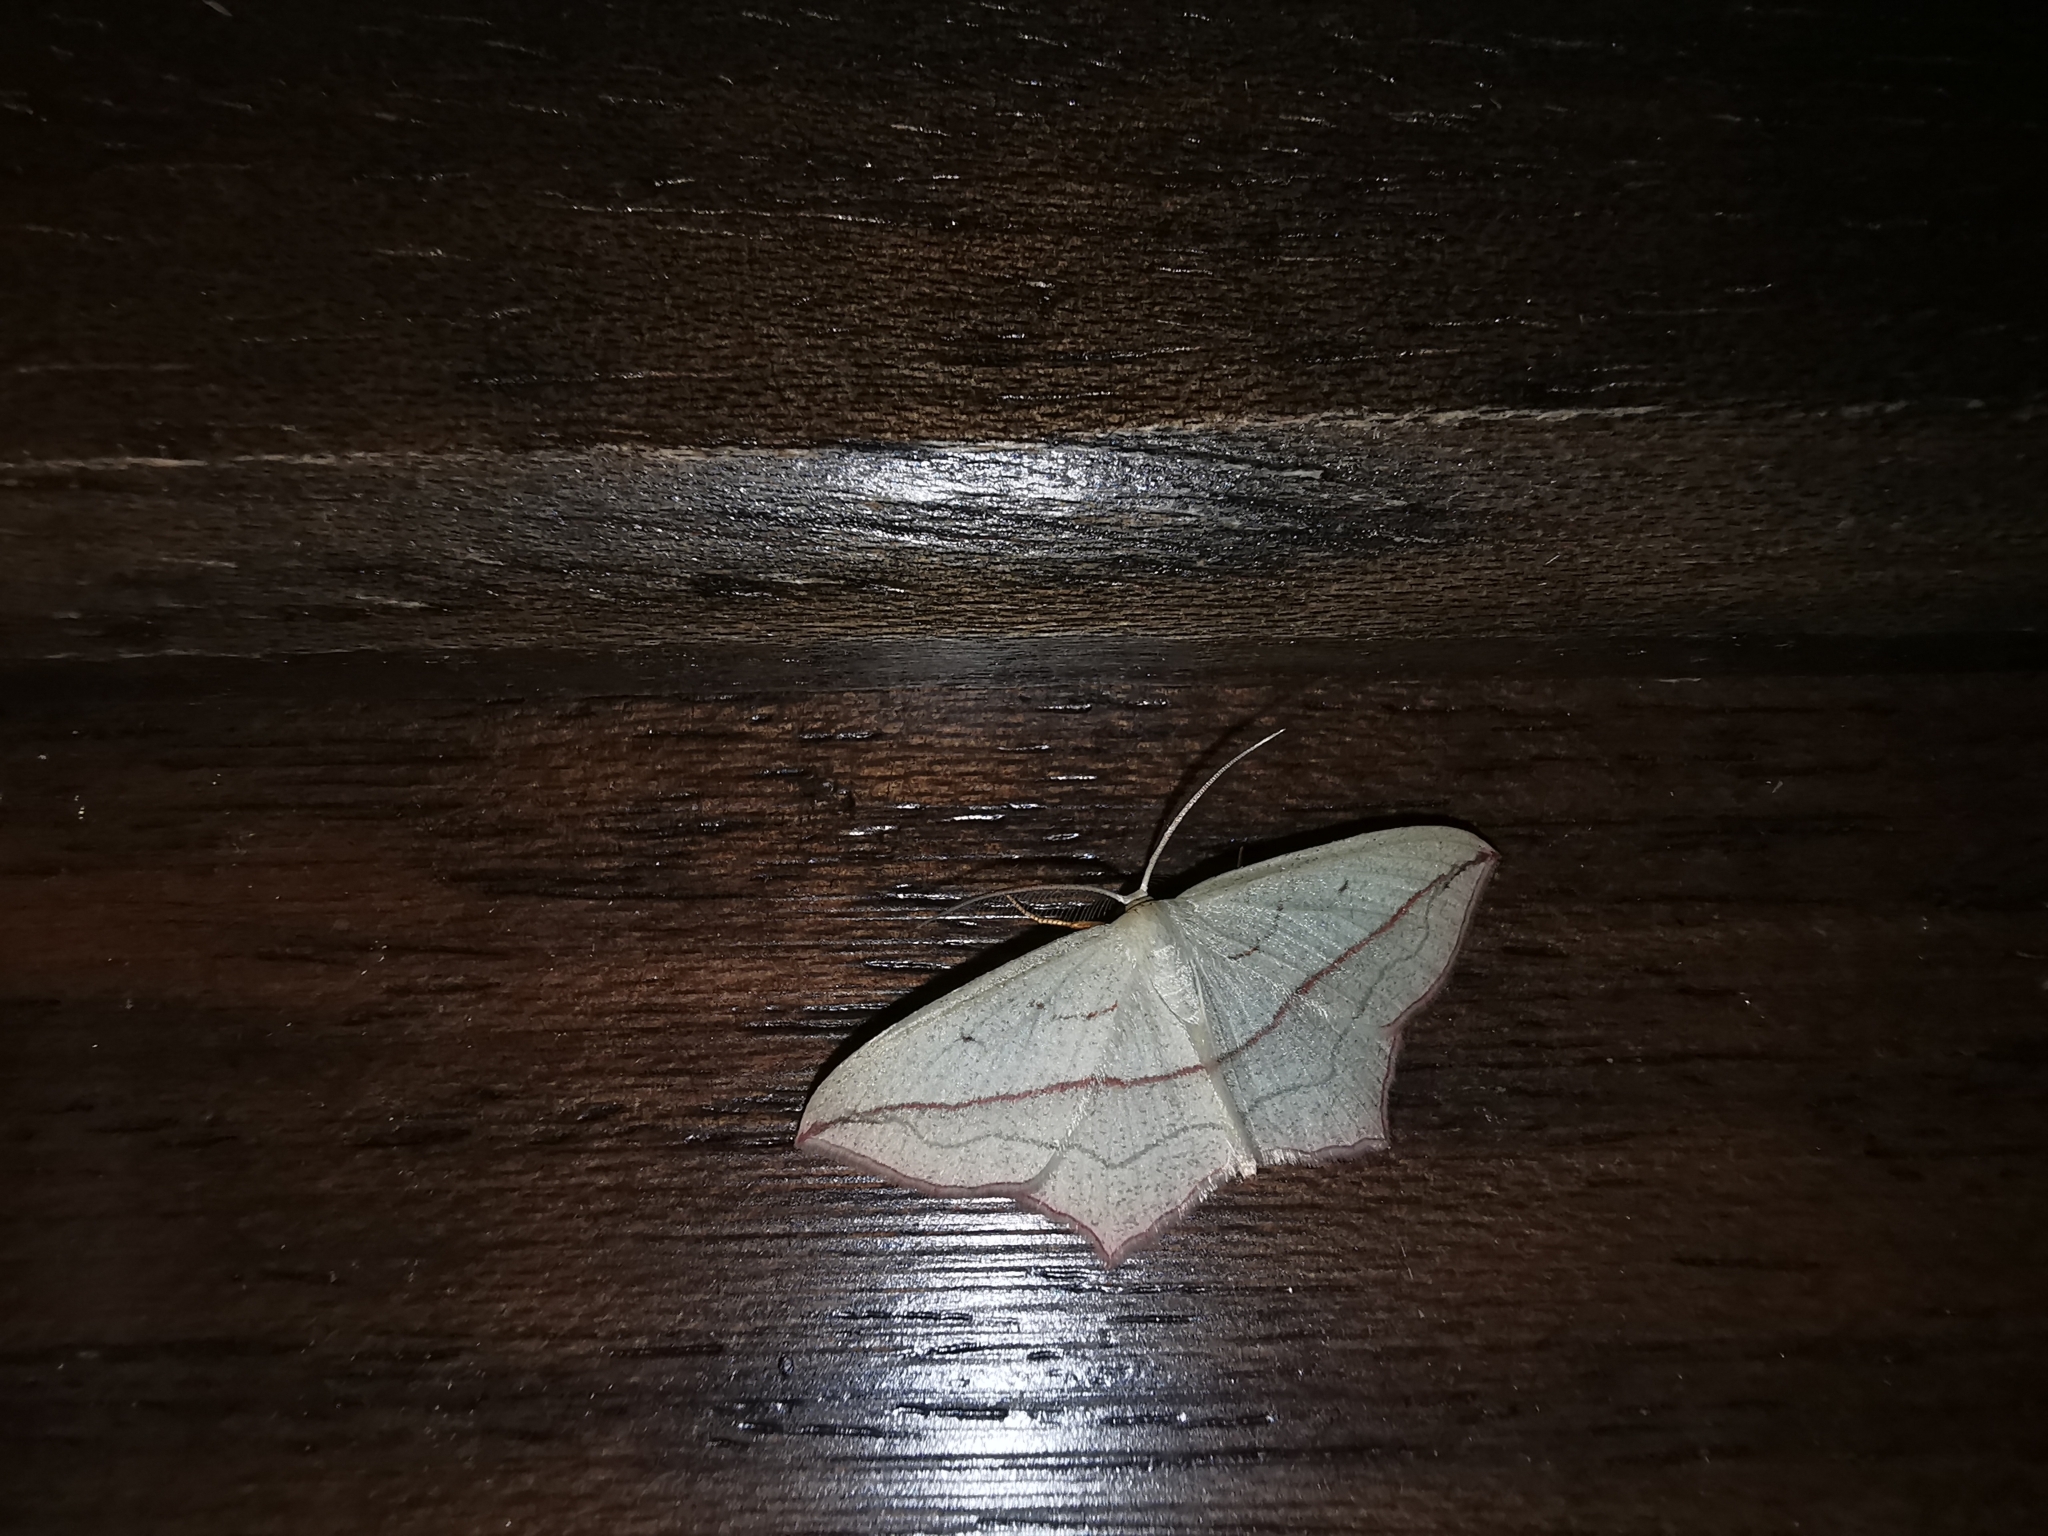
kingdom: Animalia
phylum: Arthropoda
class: Insecta
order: Lepidoptera
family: Geometridae
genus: Timandra
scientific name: Timandra comae
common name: Blood-vein
